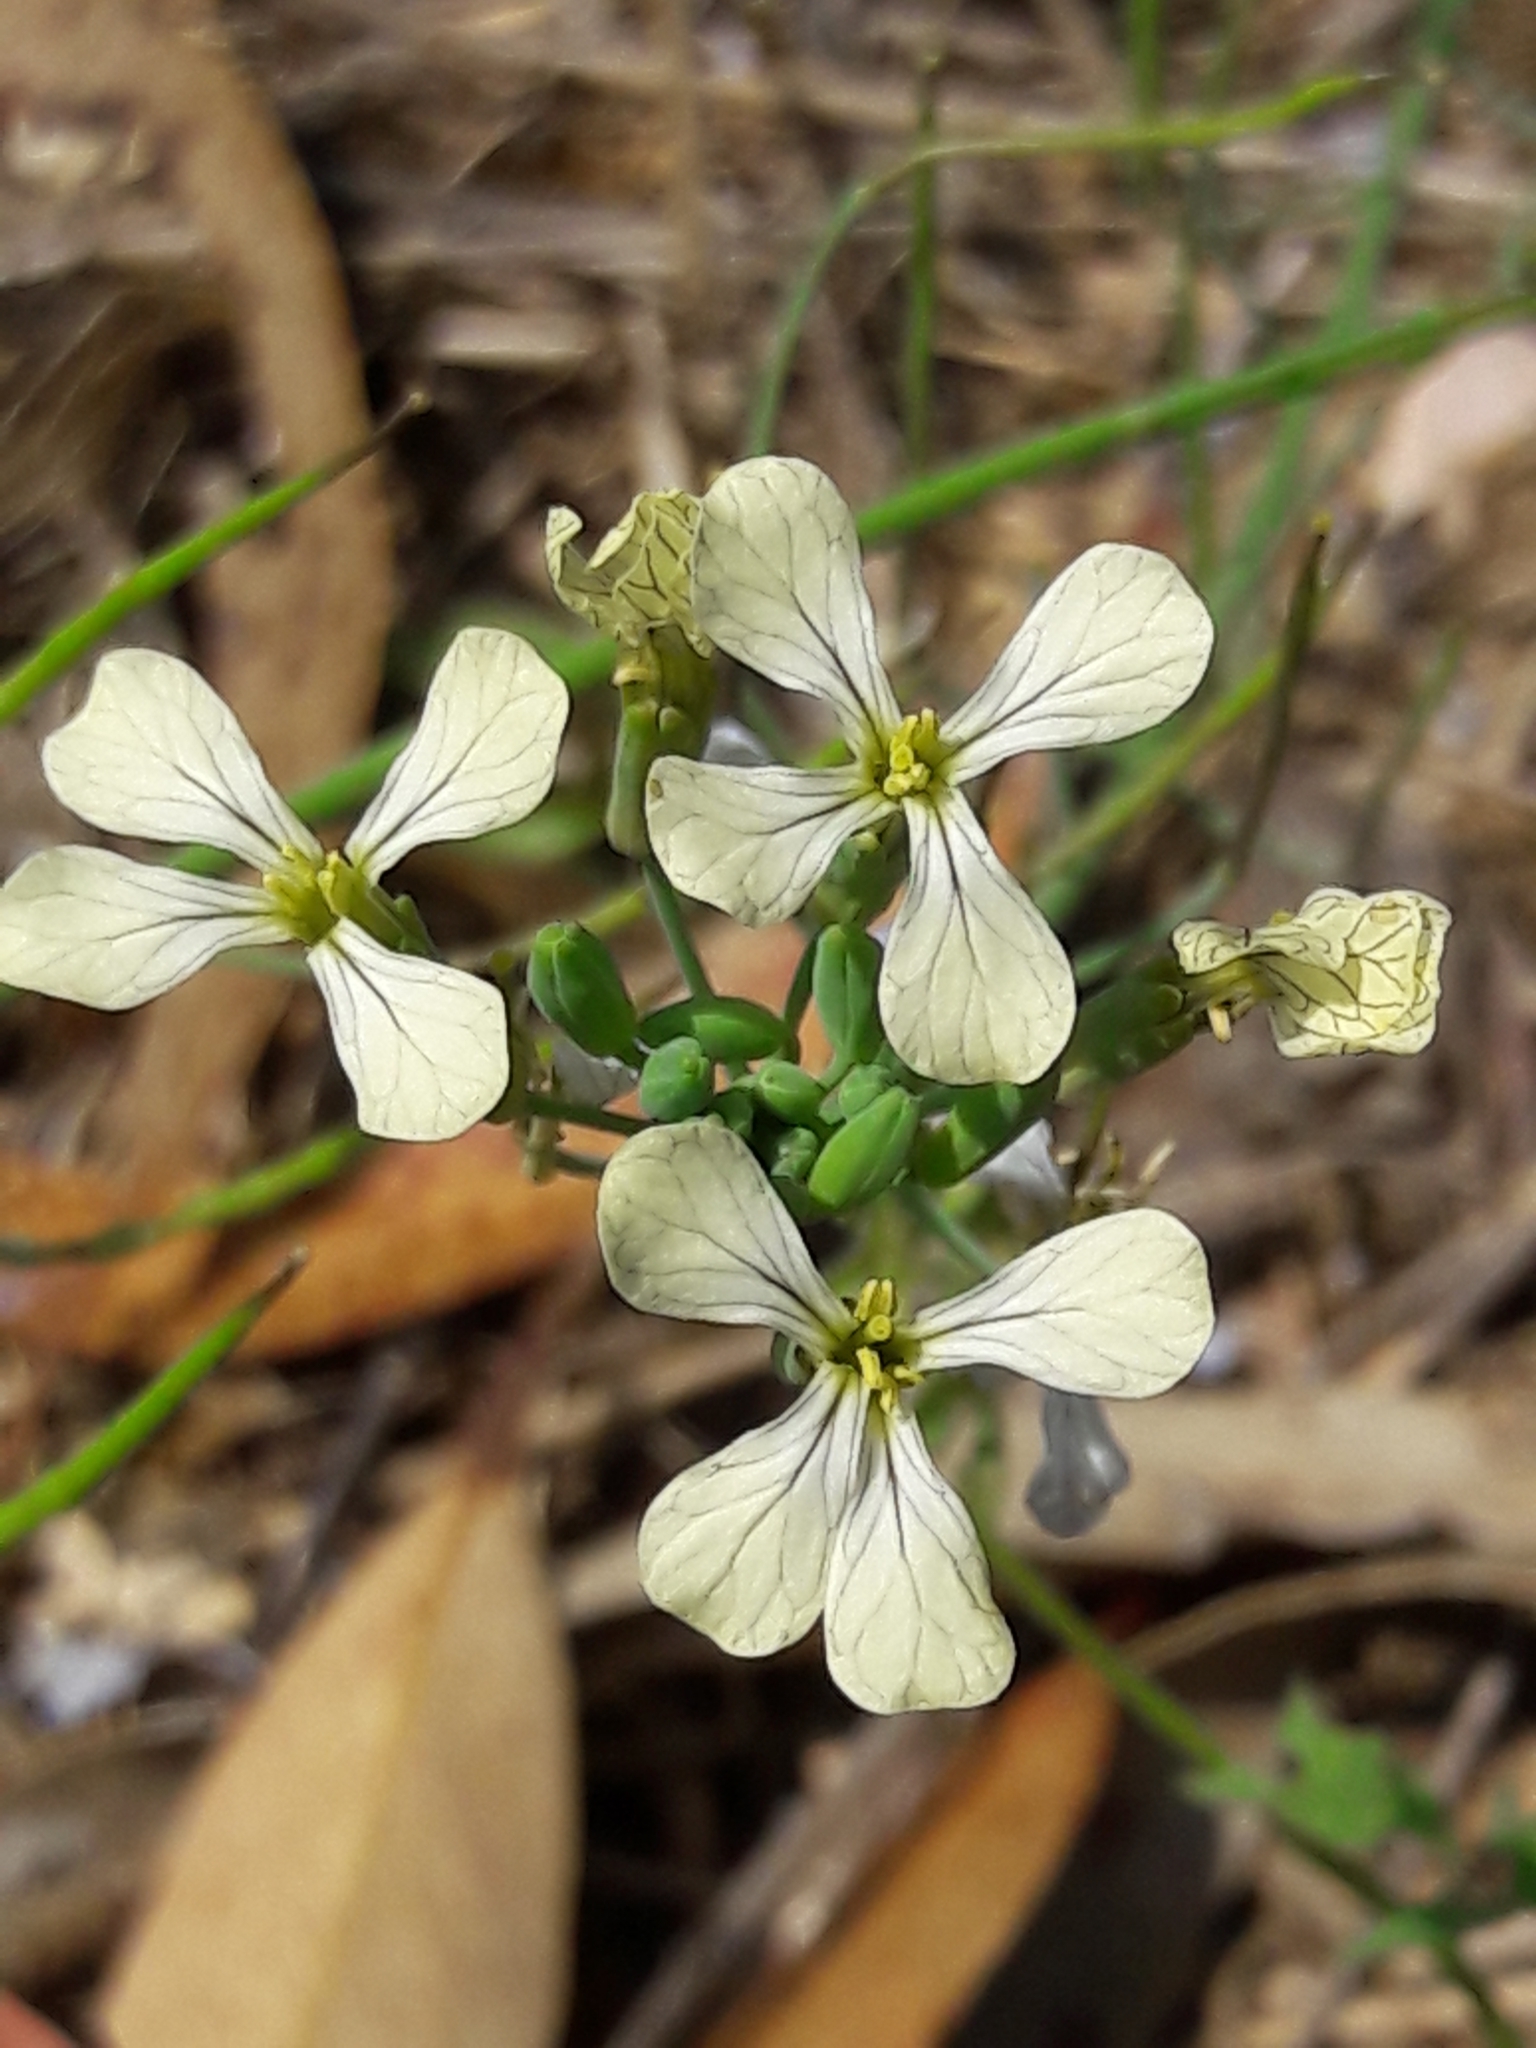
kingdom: Plantae
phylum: Tracheophyta
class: Magnoliopsida
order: Brassicales
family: Brassicaceae
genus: Raphanus
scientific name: Raphanus raphanistrum
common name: Wild radish
